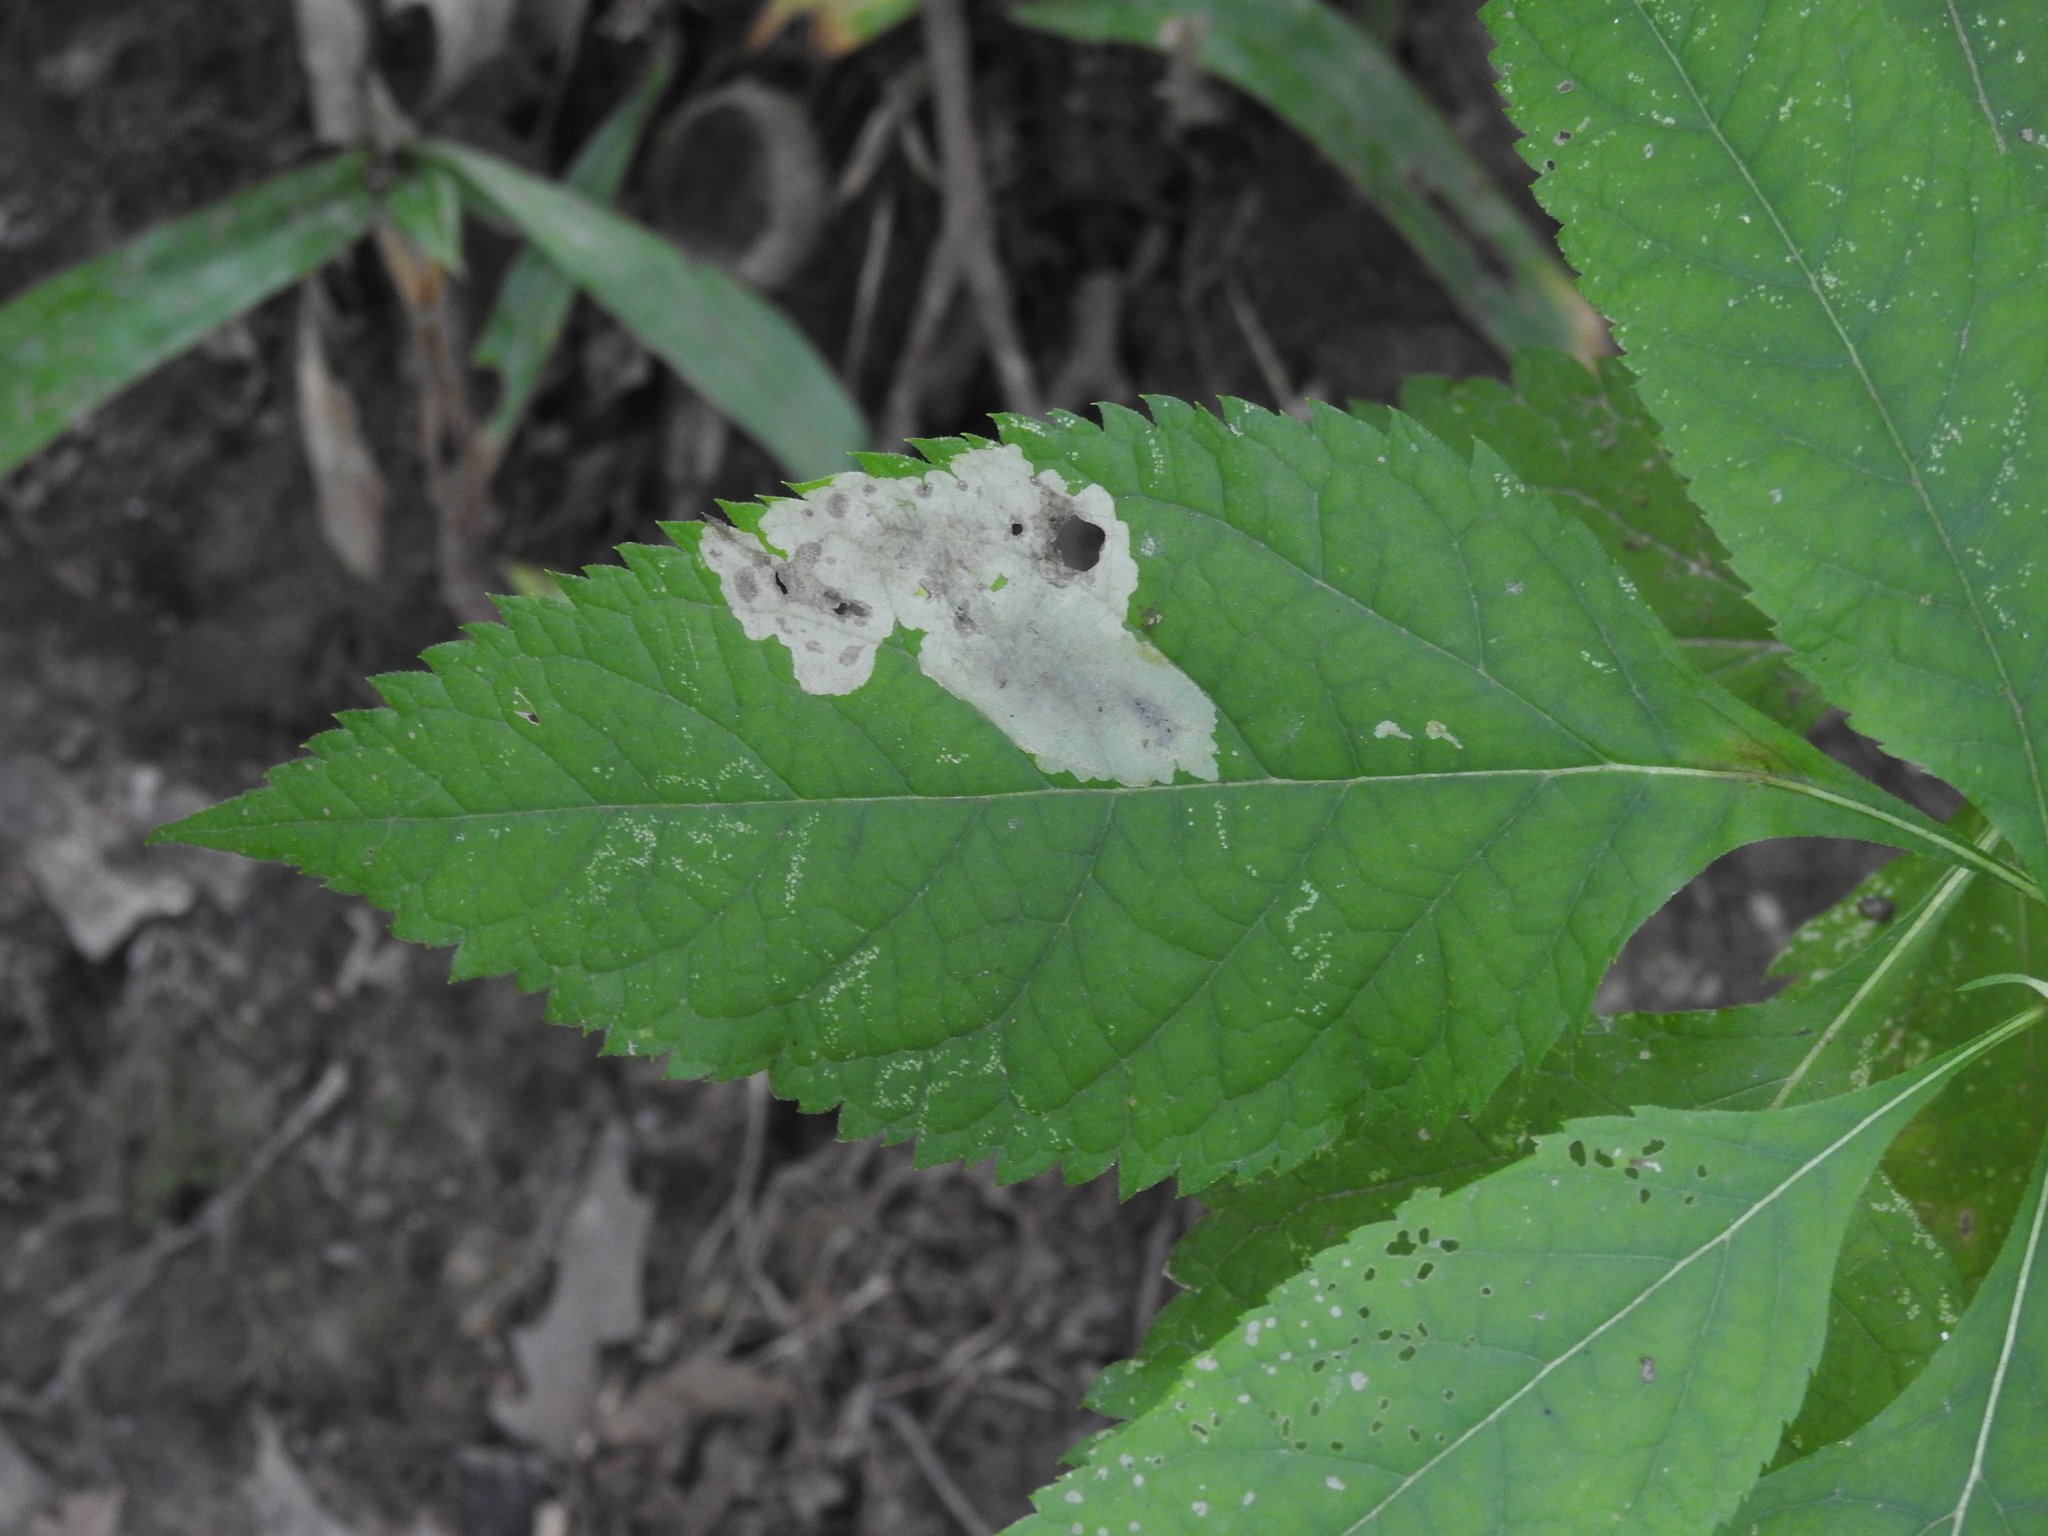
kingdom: Animalia
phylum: Arthropoda
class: Insecta
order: Diptera
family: Agromyzidae
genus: Calycomyza
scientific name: Calycomyza flavinotum
